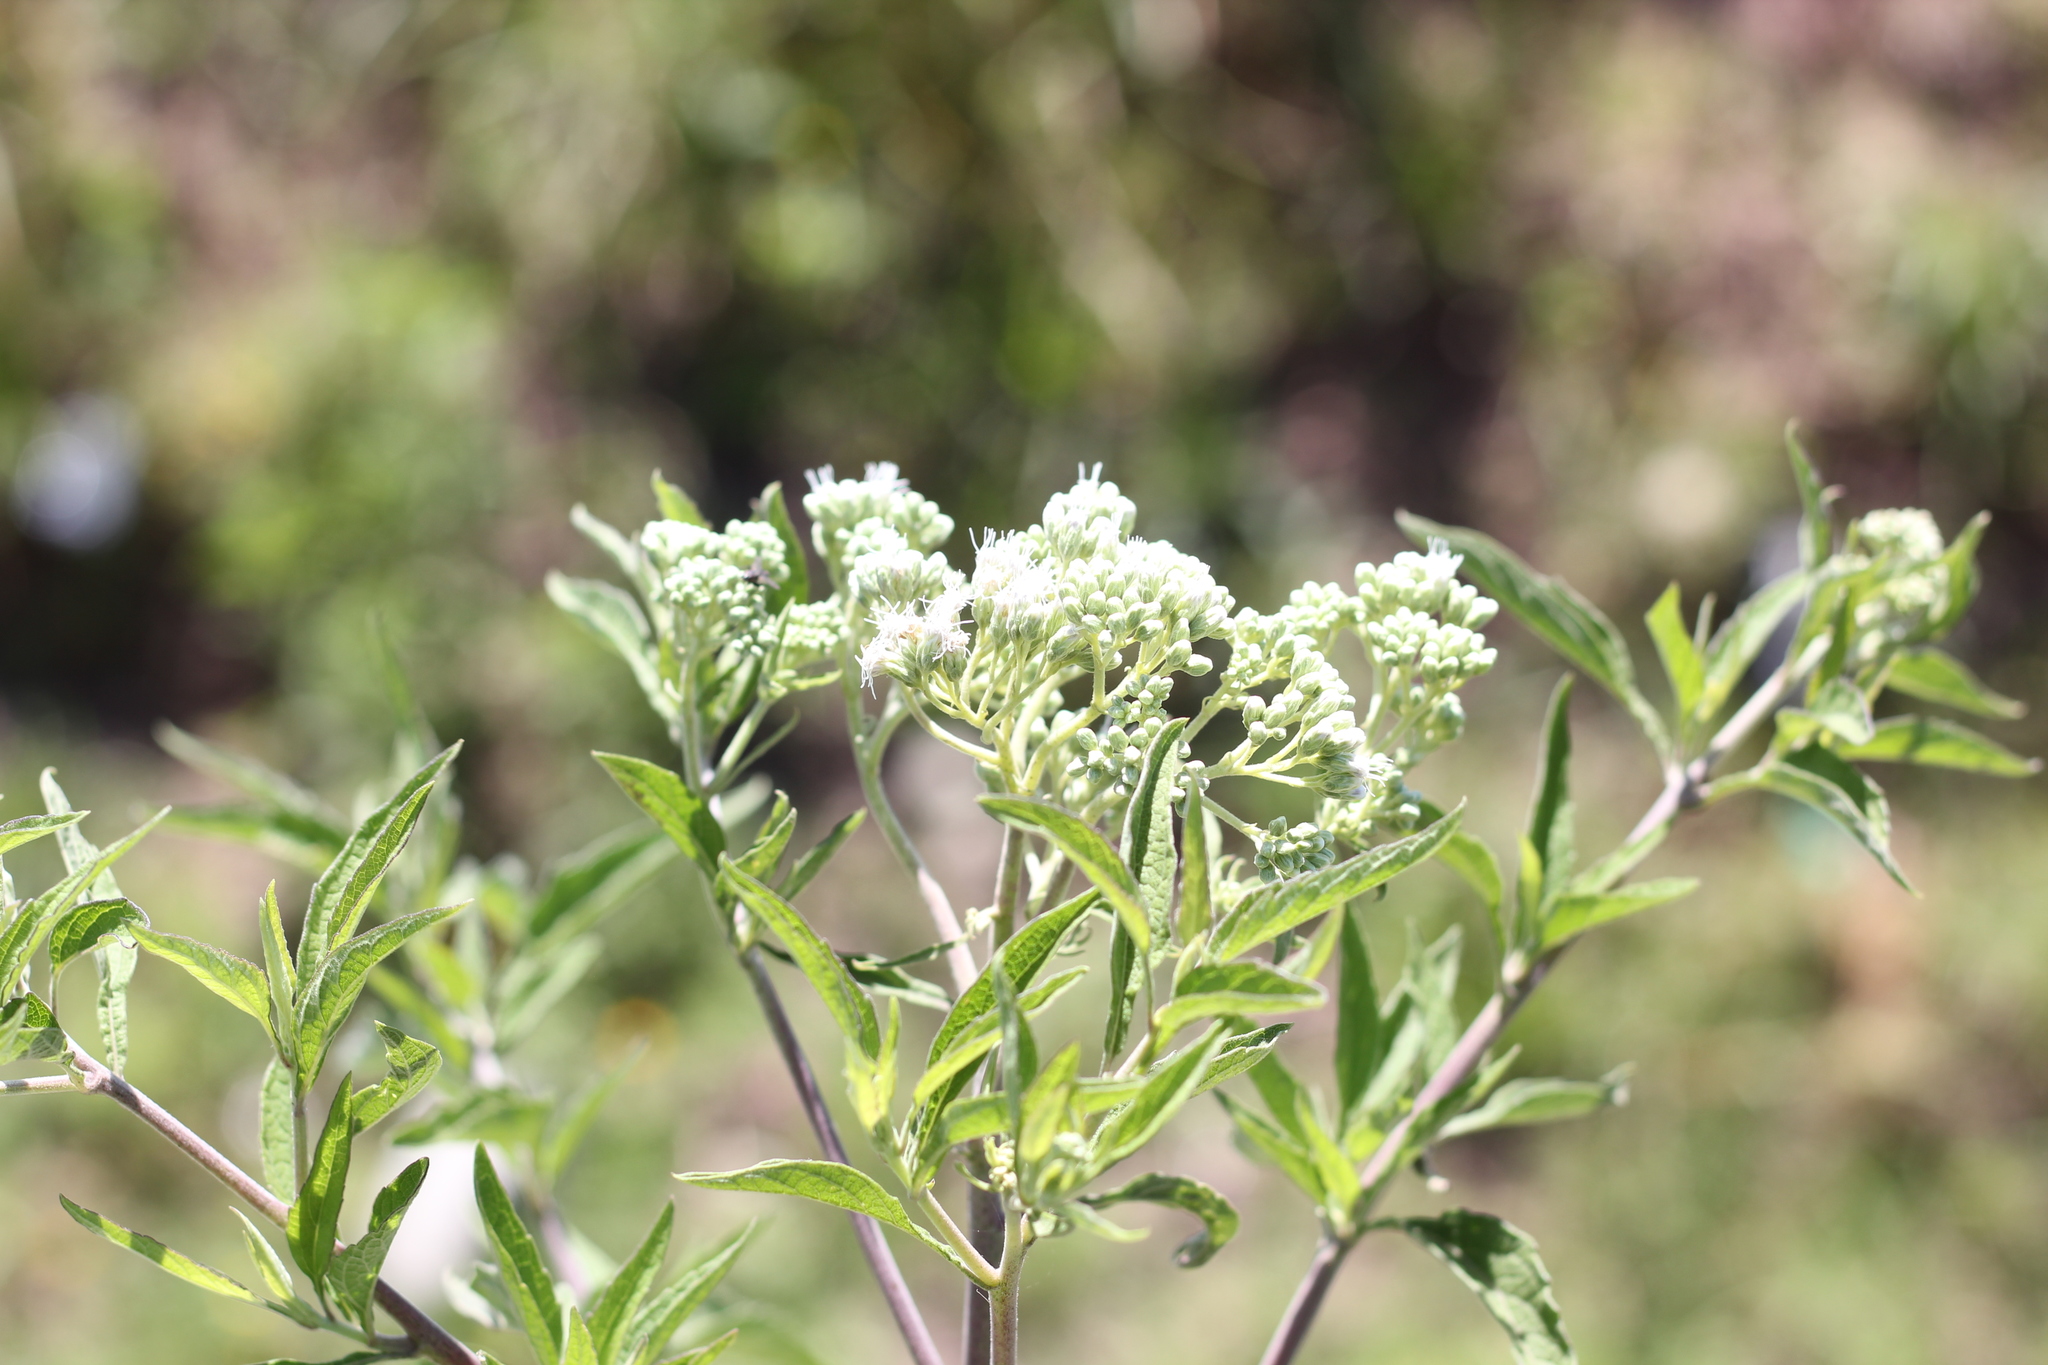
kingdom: Plantae
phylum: Tracheophyta
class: Magnoliopsida
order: Asterales
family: Asteraceae
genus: Austroeupatorium
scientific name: Austroeupatorium inulifolium
